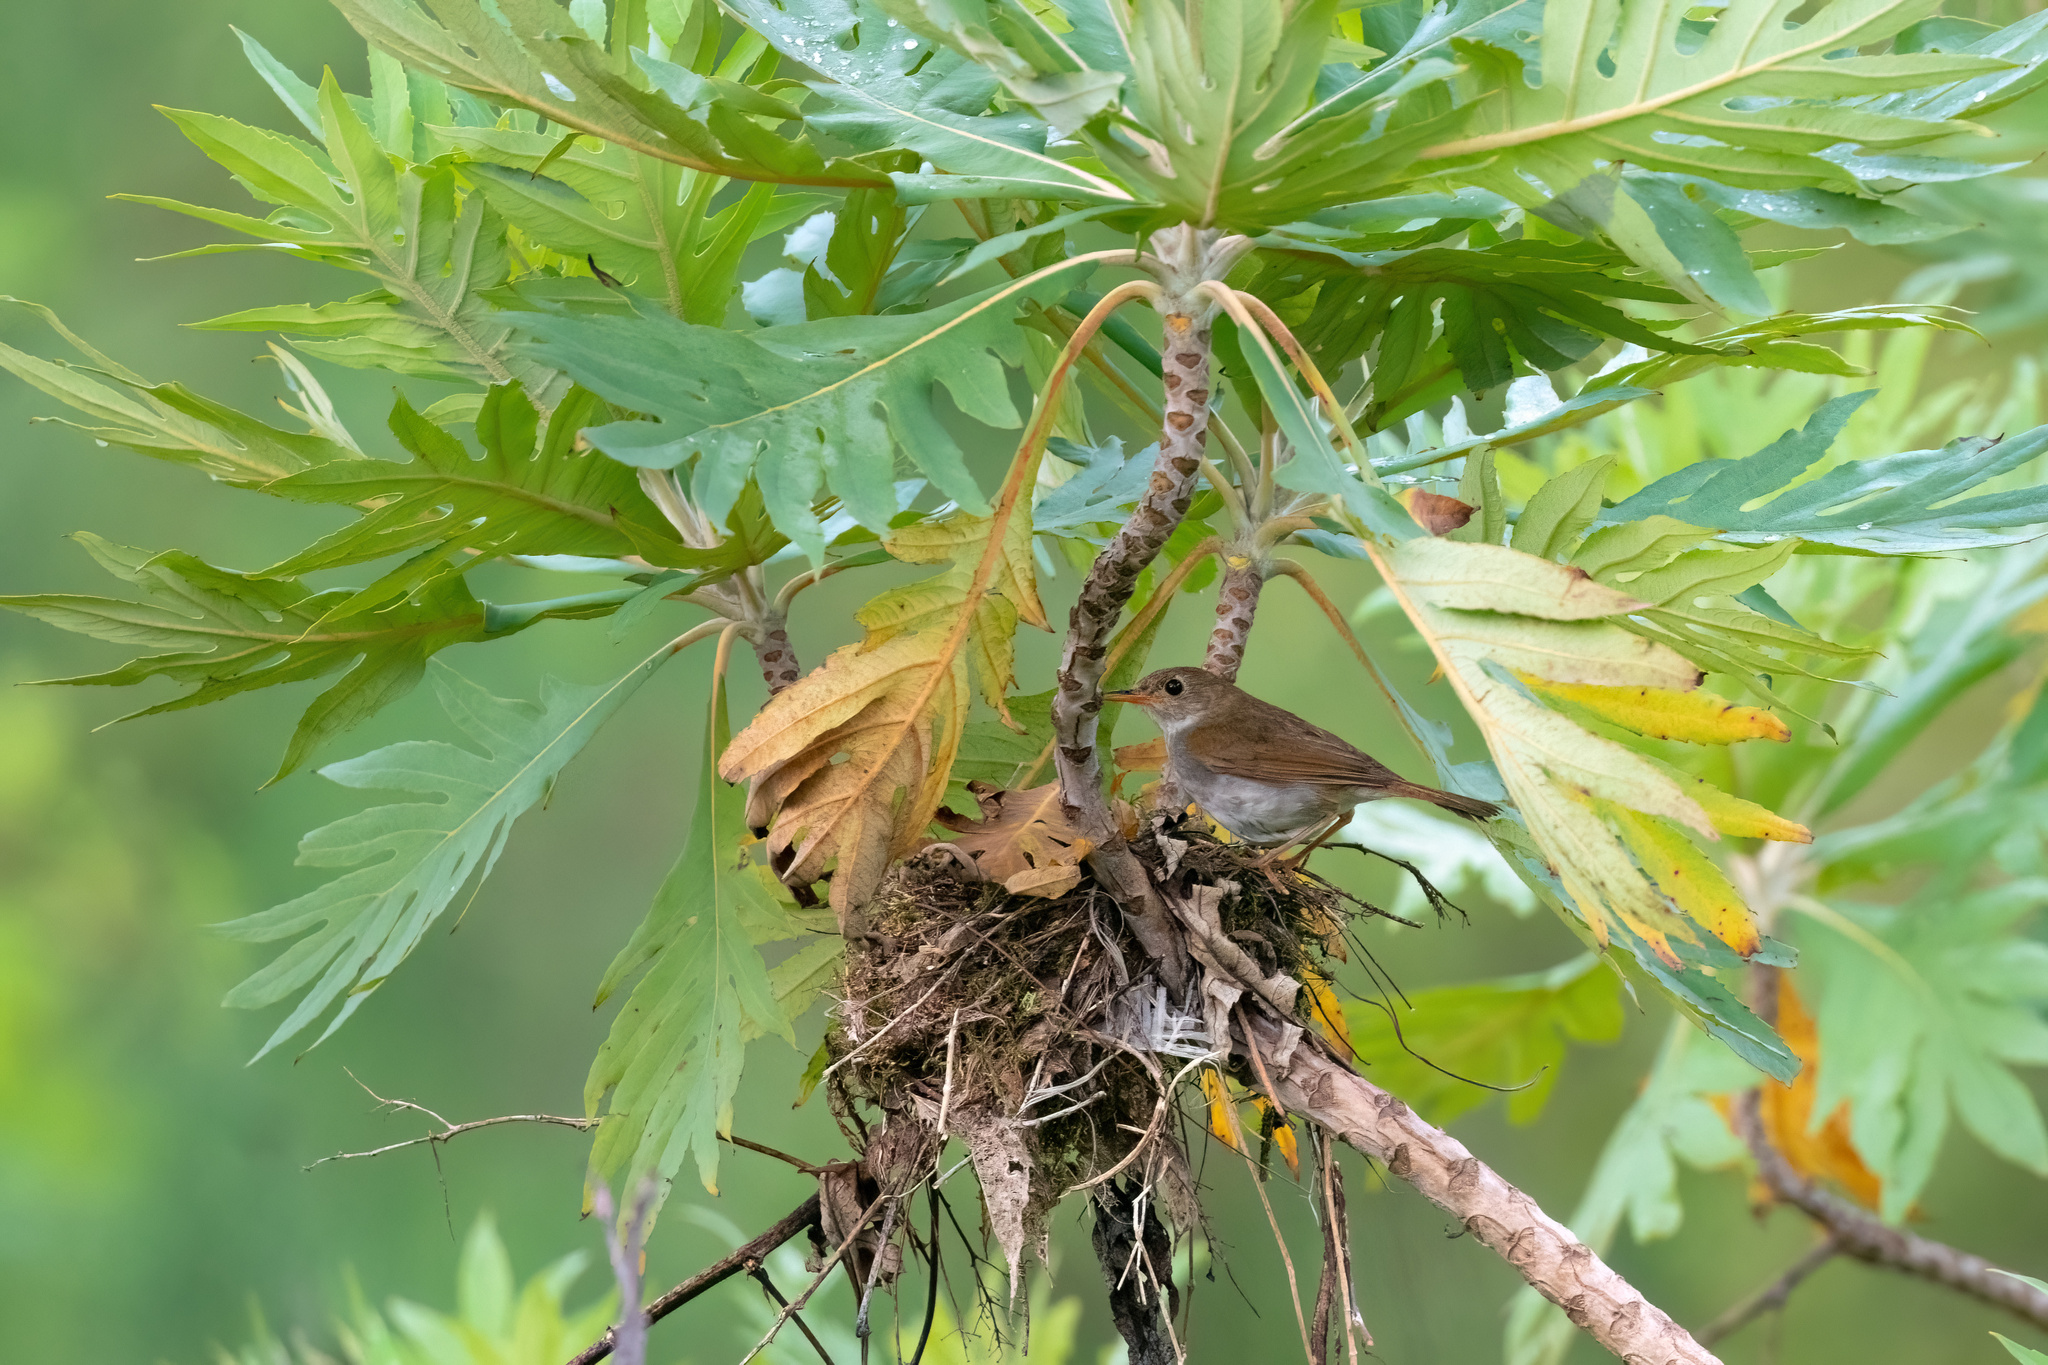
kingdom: Animalia
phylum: Chordata
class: Aves
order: Passeriformes
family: Turdidae
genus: Catharus
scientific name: Catharus aurantiirostris
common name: Orange-billed nightingale-thrush
